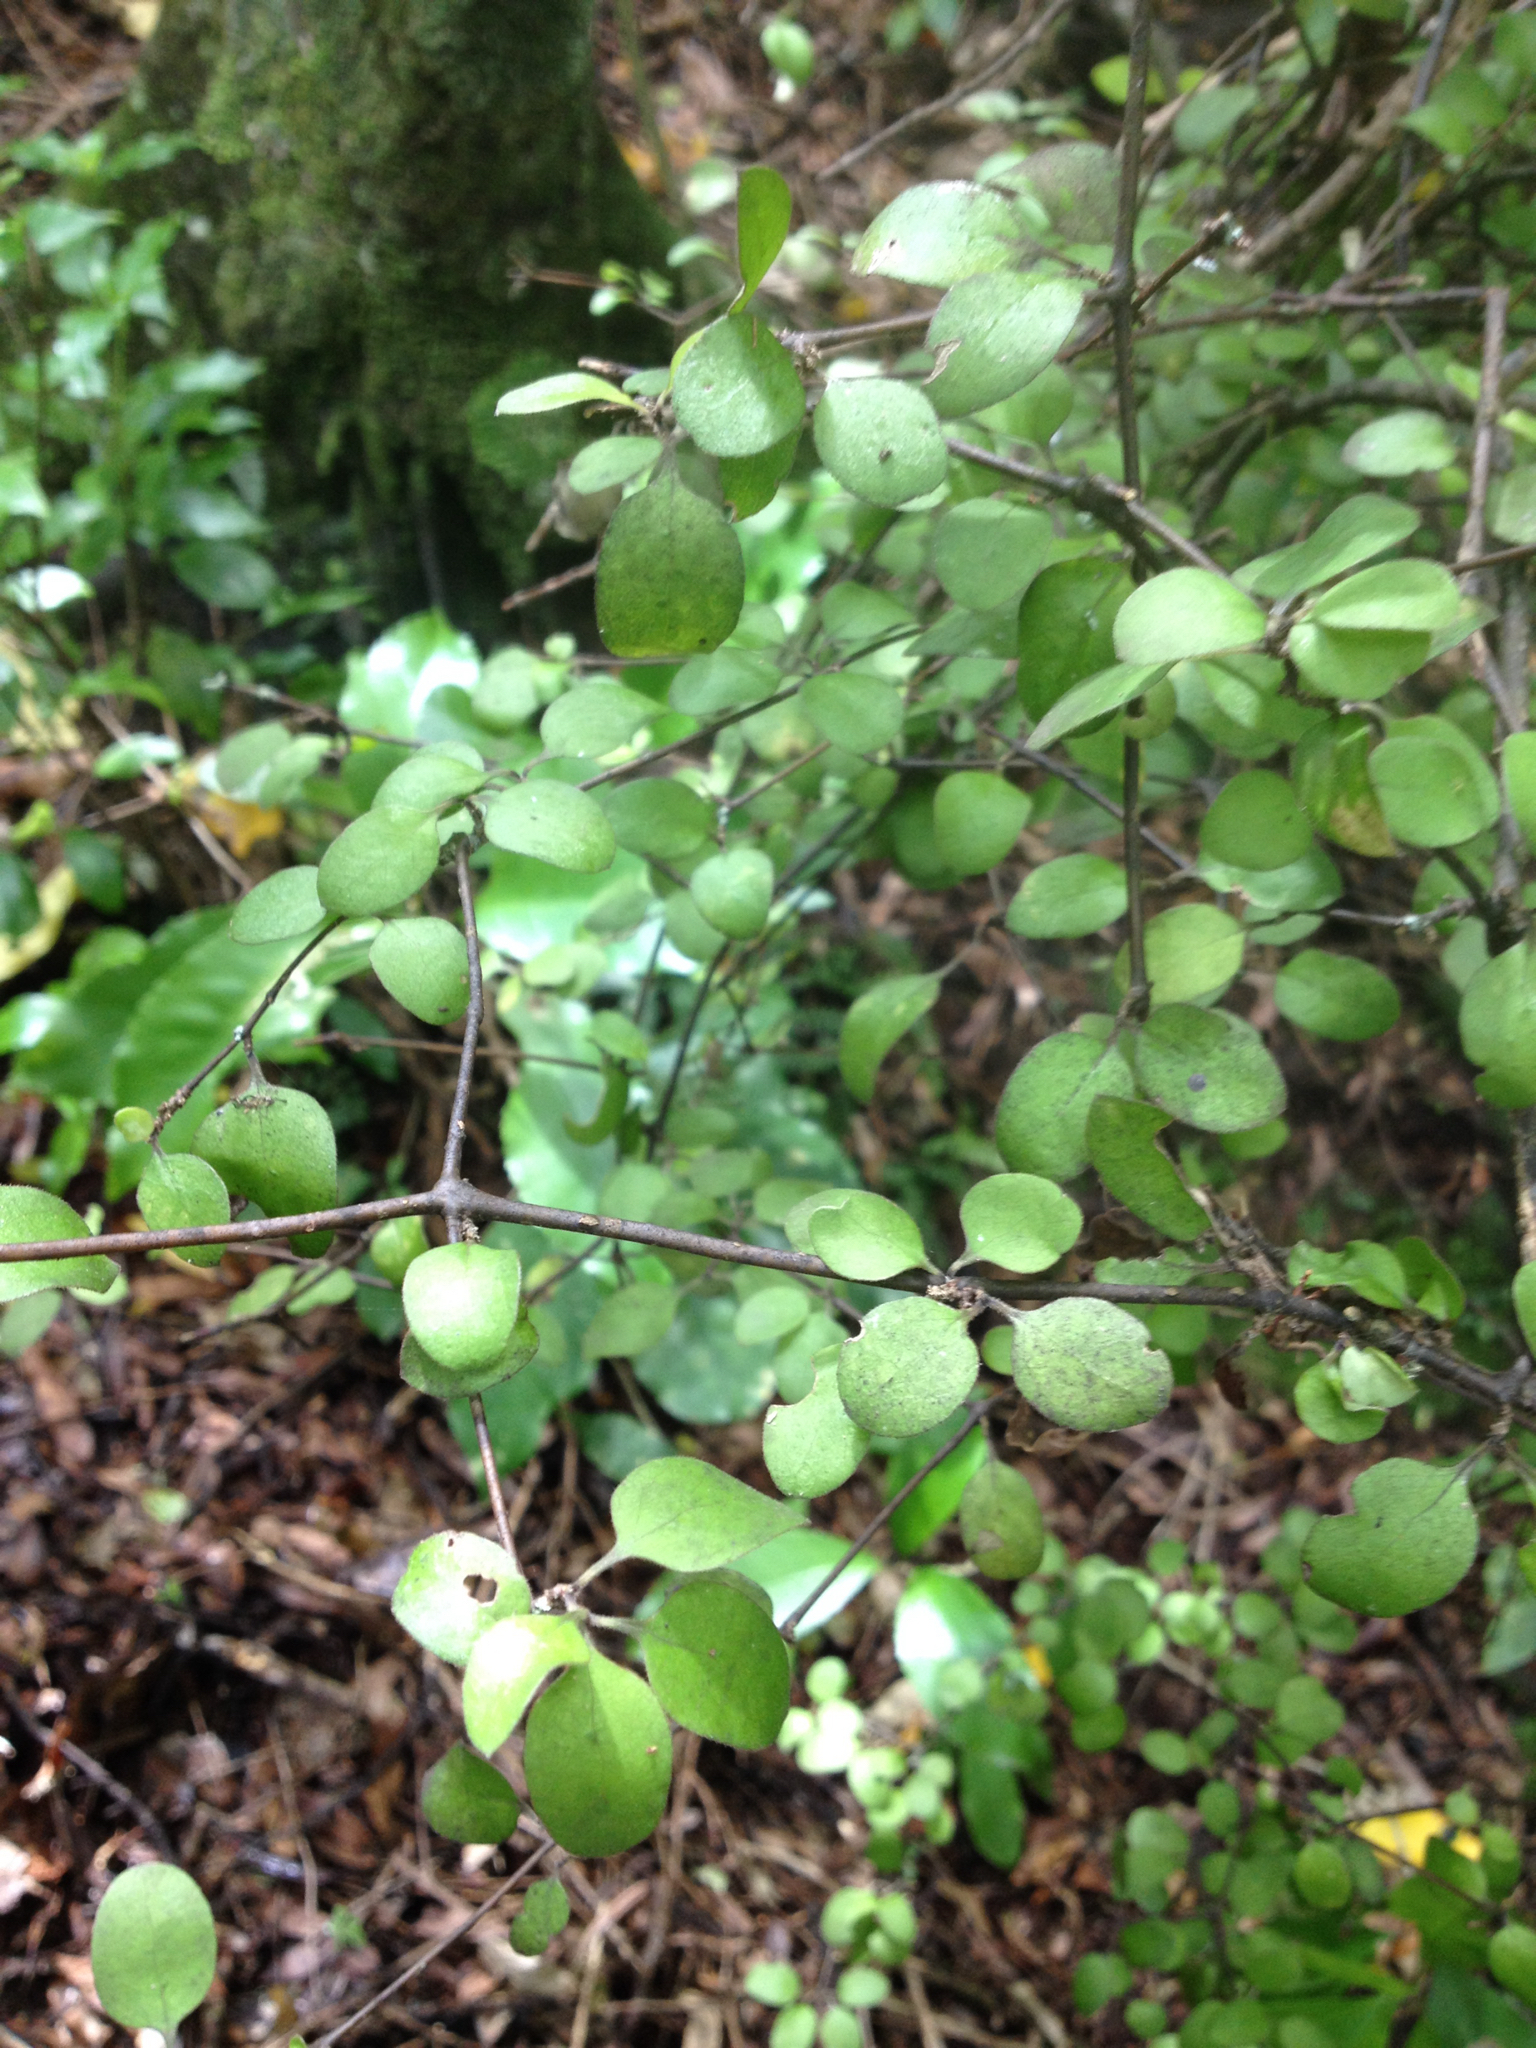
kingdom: Plantae
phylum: Tracheophyta
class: Magnoliopsida
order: Gentianales
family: Rubiaceae
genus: Coprosma
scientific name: Coprosma crassifolia
